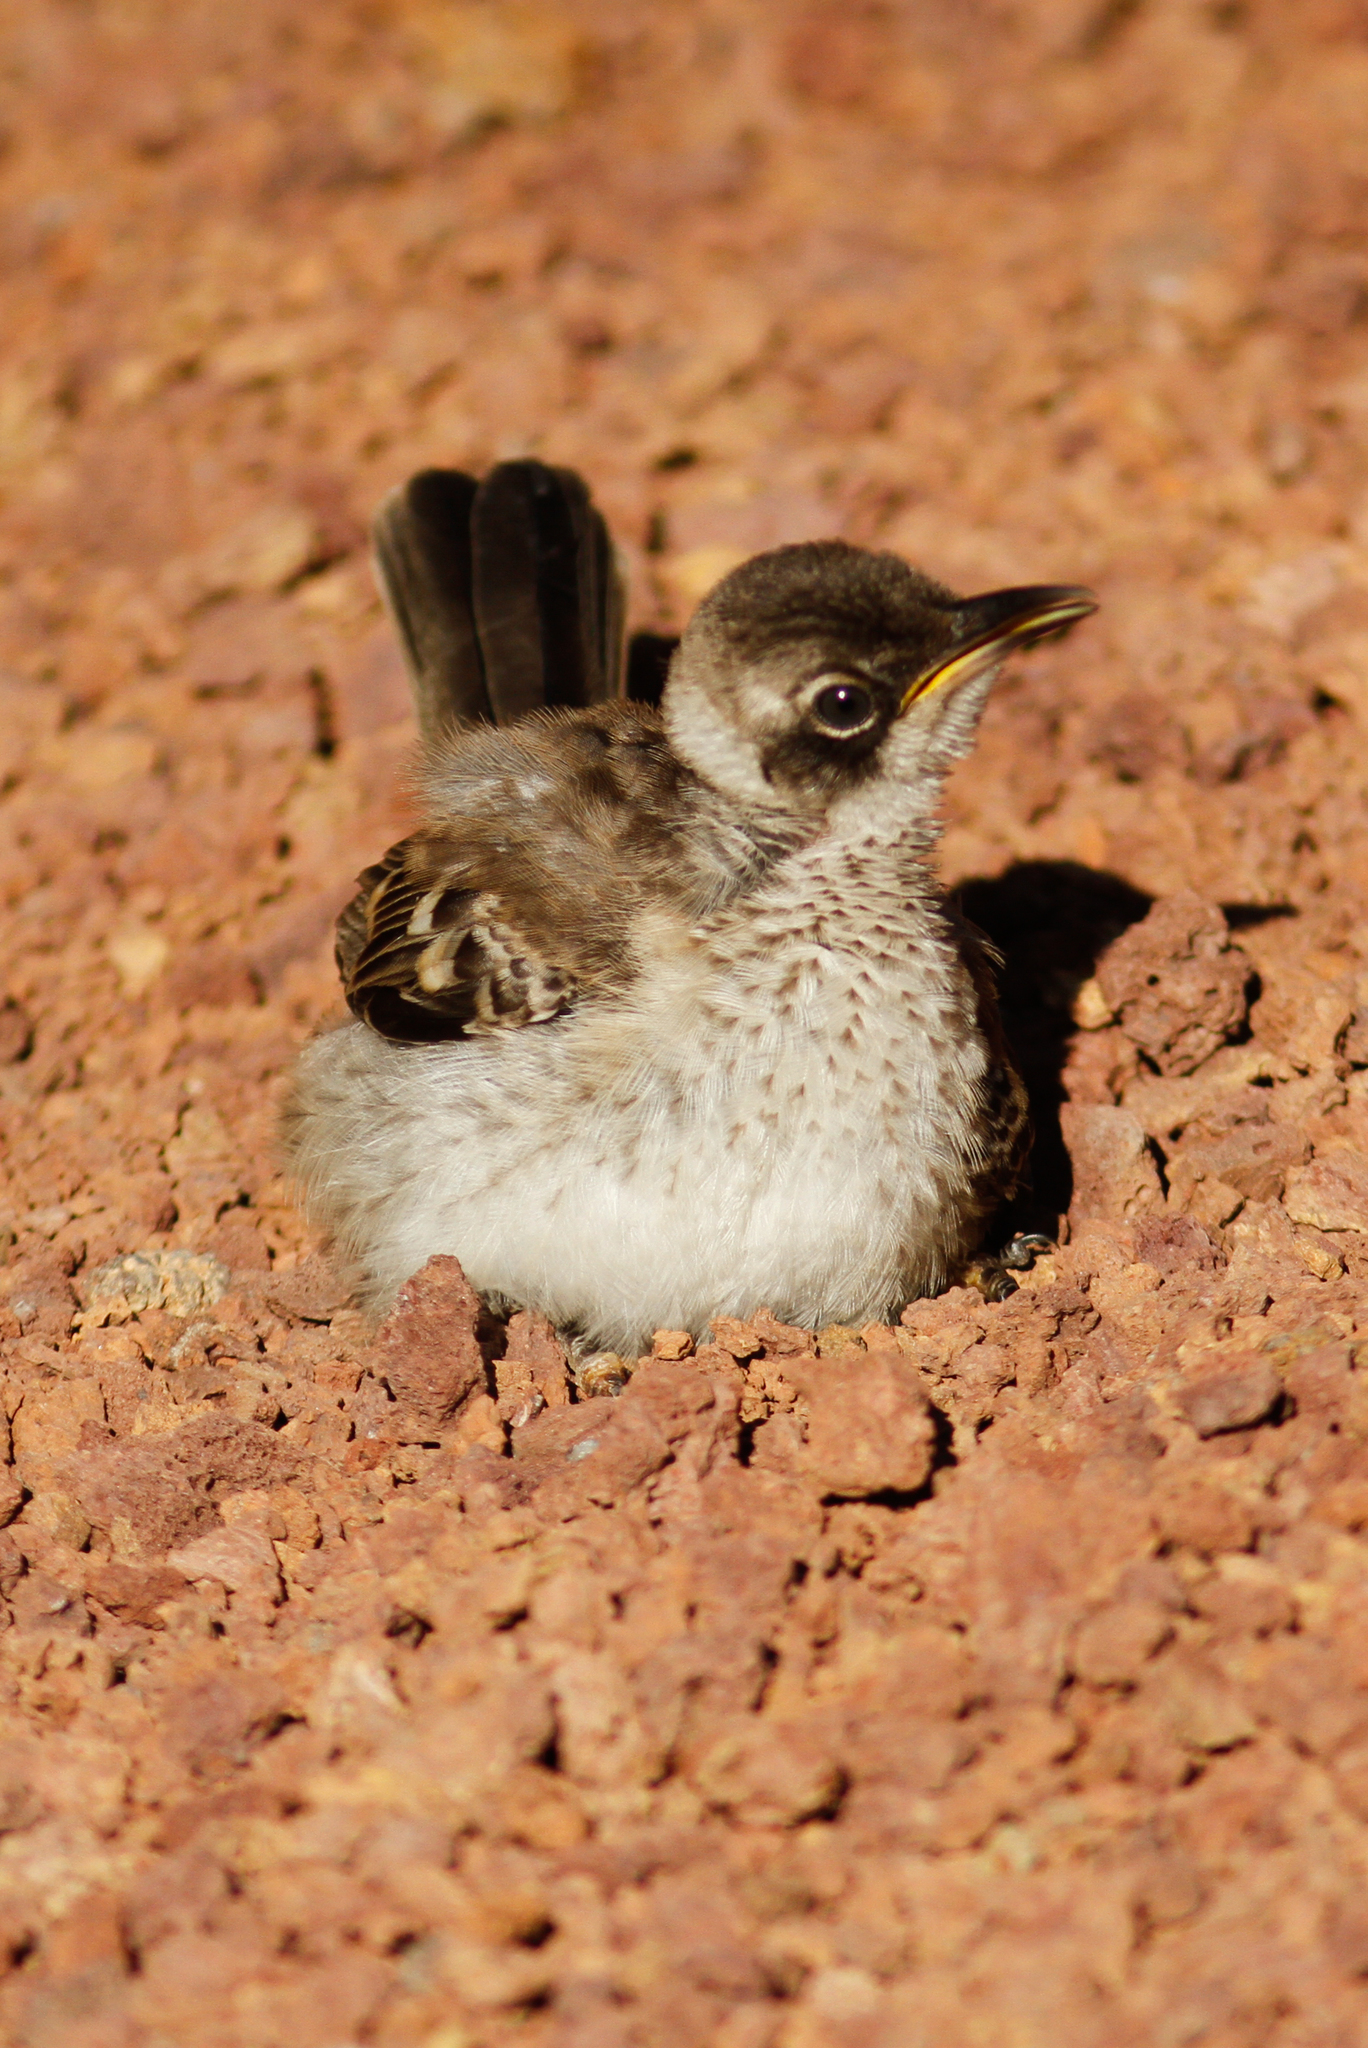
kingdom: Animalia
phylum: Chordata
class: Aves
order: Passeriformes
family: Mimidae
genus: Mimus
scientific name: Mimus parvulus
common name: Galapagos mockingbird
